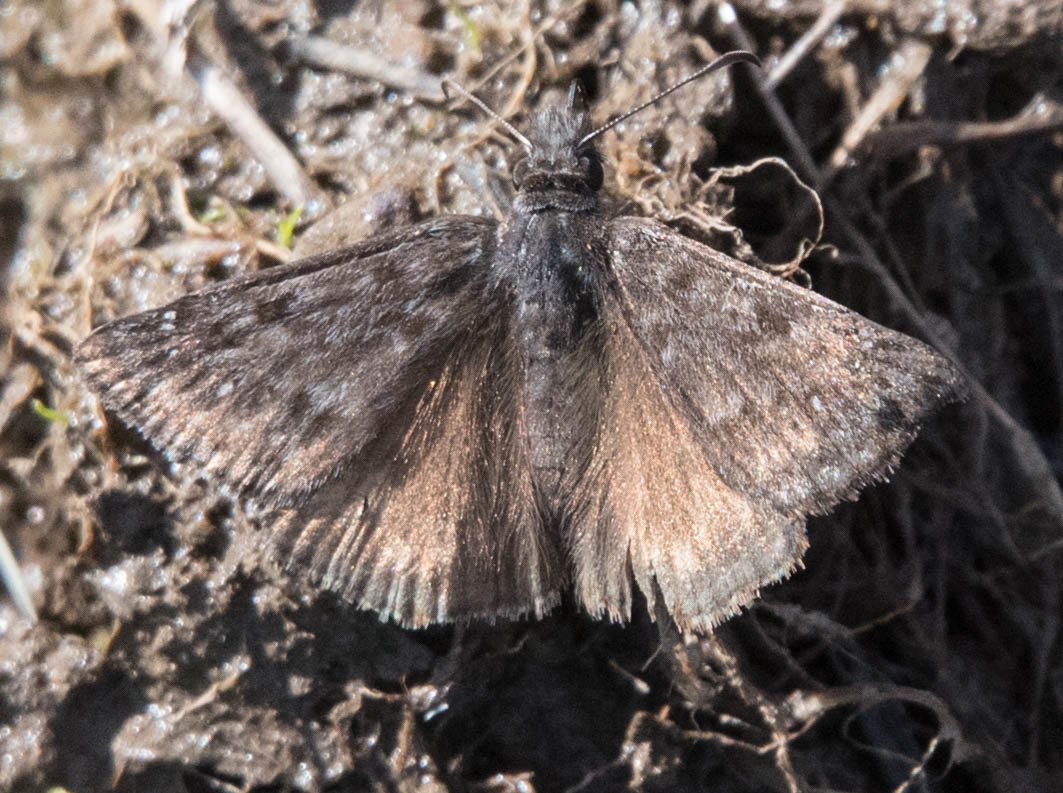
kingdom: Animalia
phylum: Arthropoda
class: Insecta
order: Lepidoptera
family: Hesperiidae
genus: Erynnis
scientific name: Erynnis propertius
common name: Propertius duskywing
